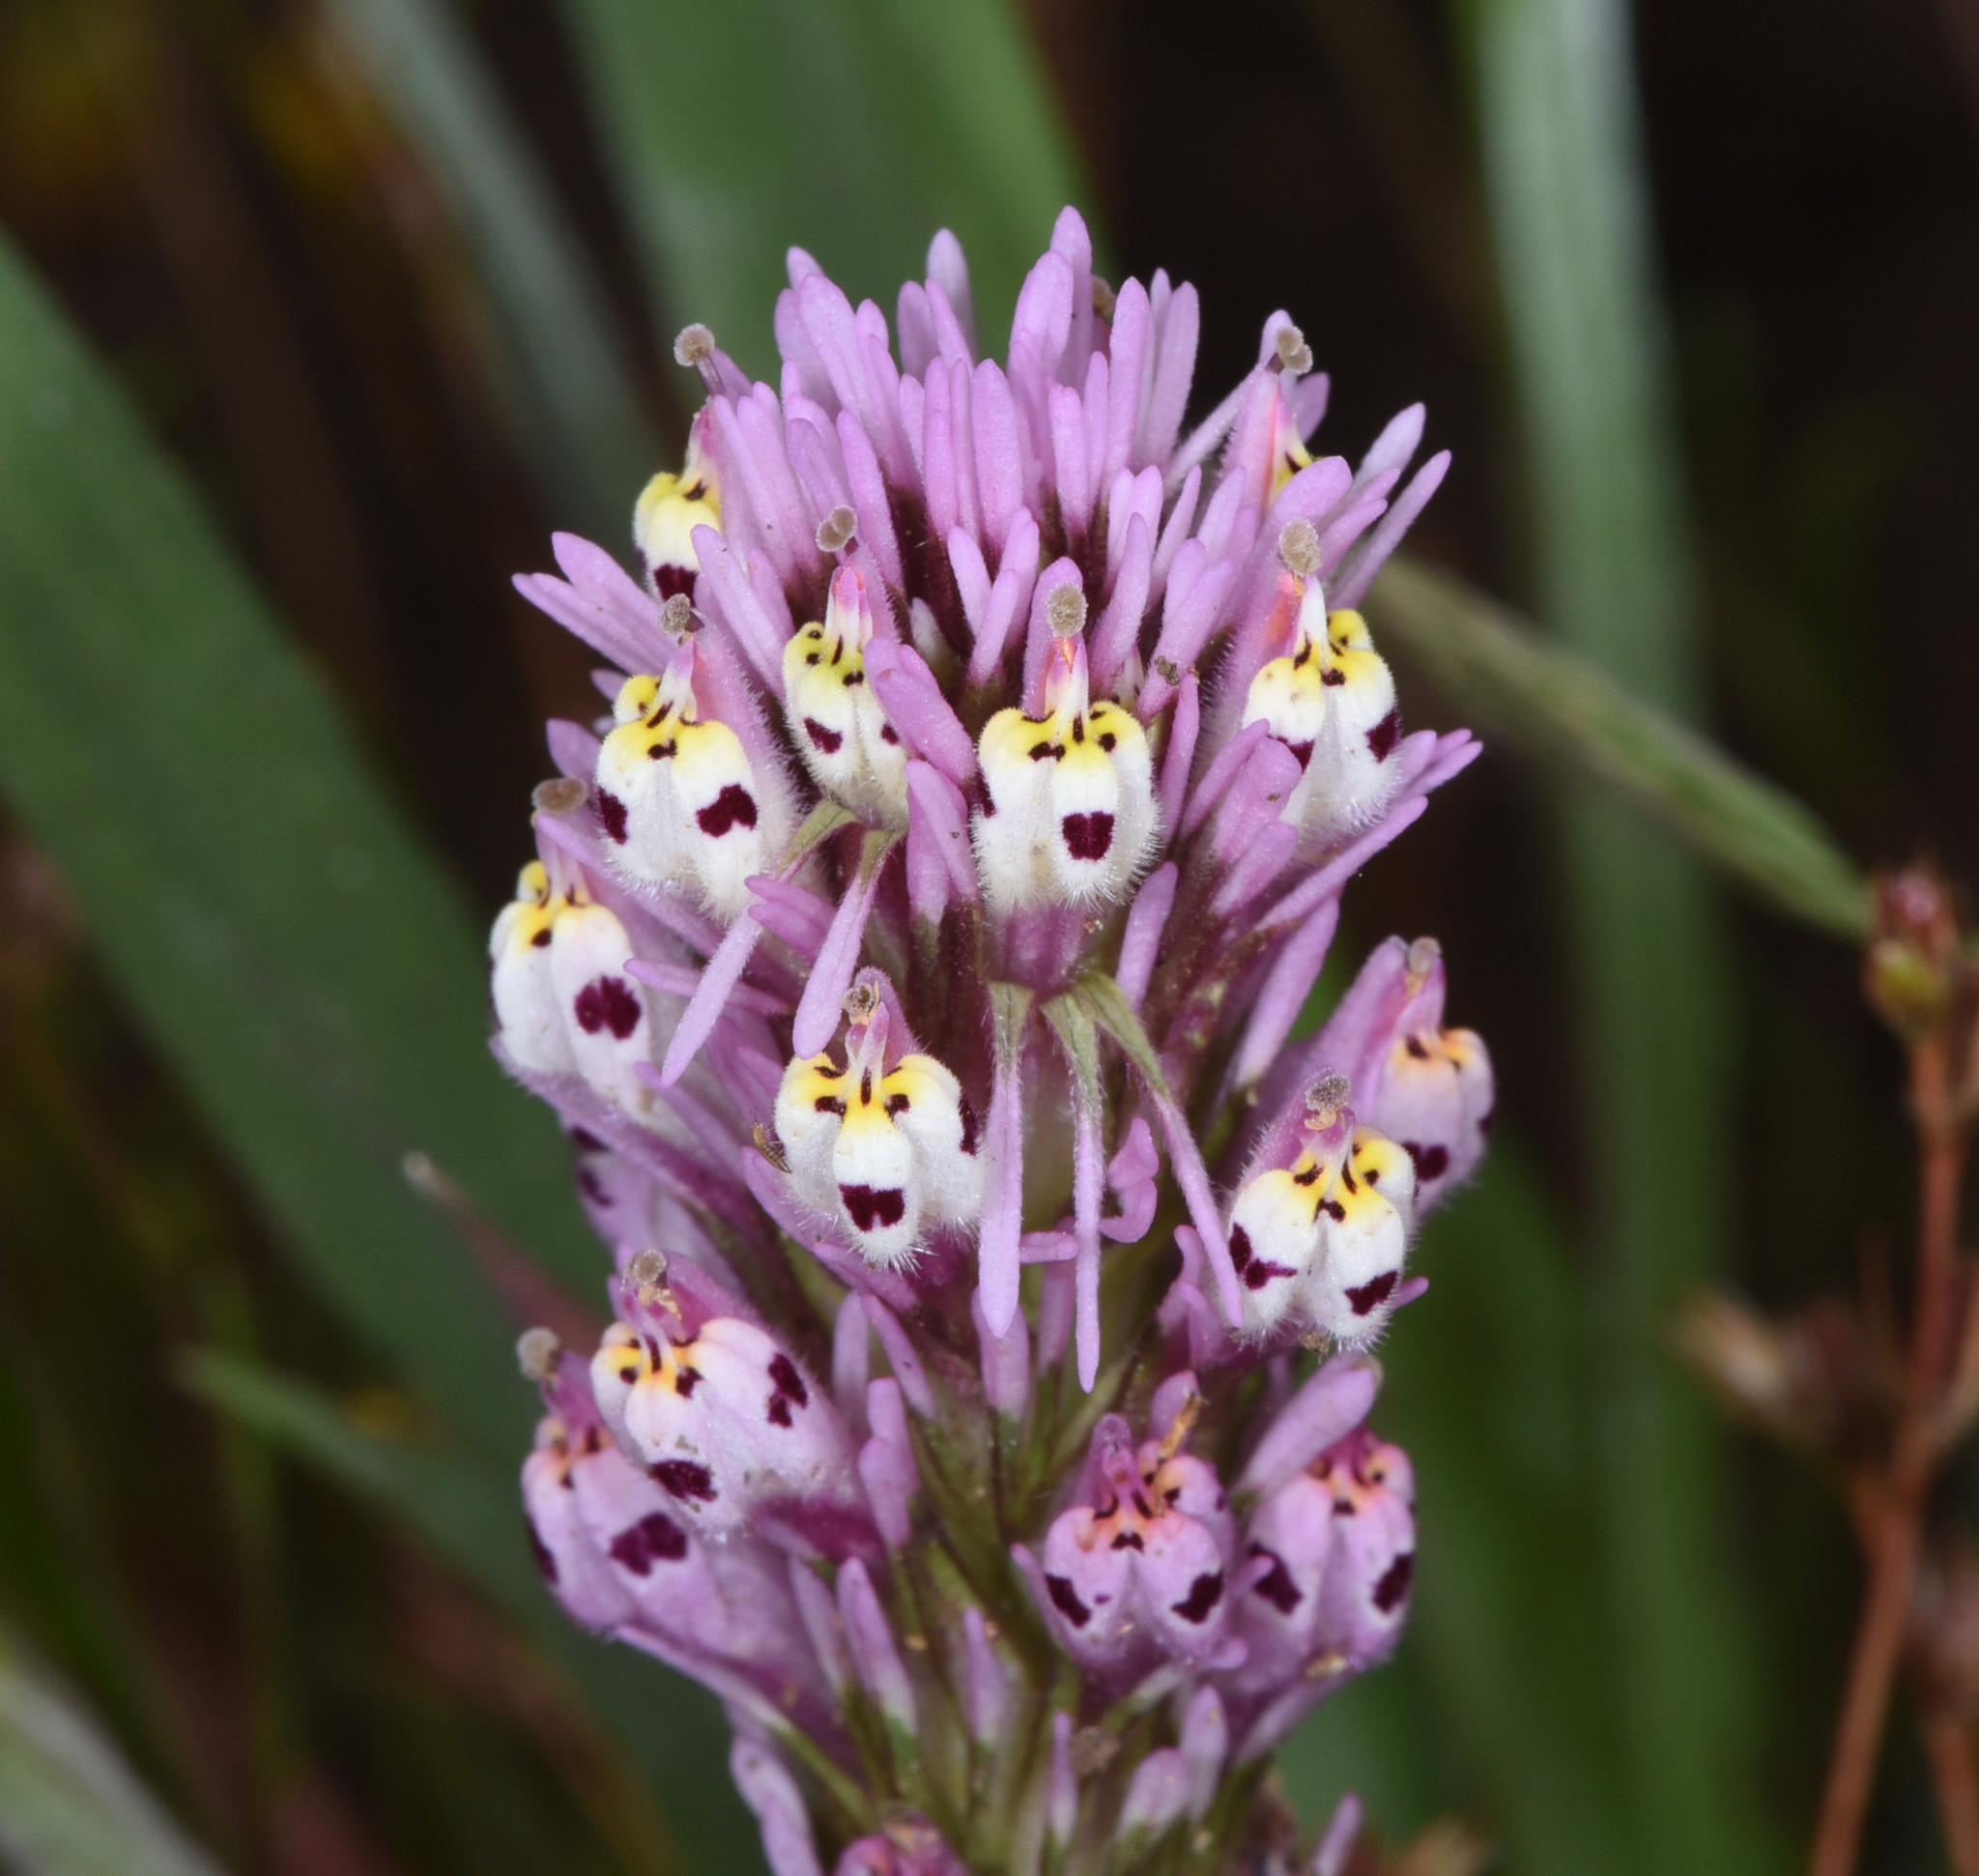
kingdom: Plantae
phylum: Tracheophyta
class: Magnoliopsida
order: Lamiales
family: Orobanchaceae
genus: Castilleja
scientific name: Castilleja densiflora
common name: Dense-flower indian paintbrush
